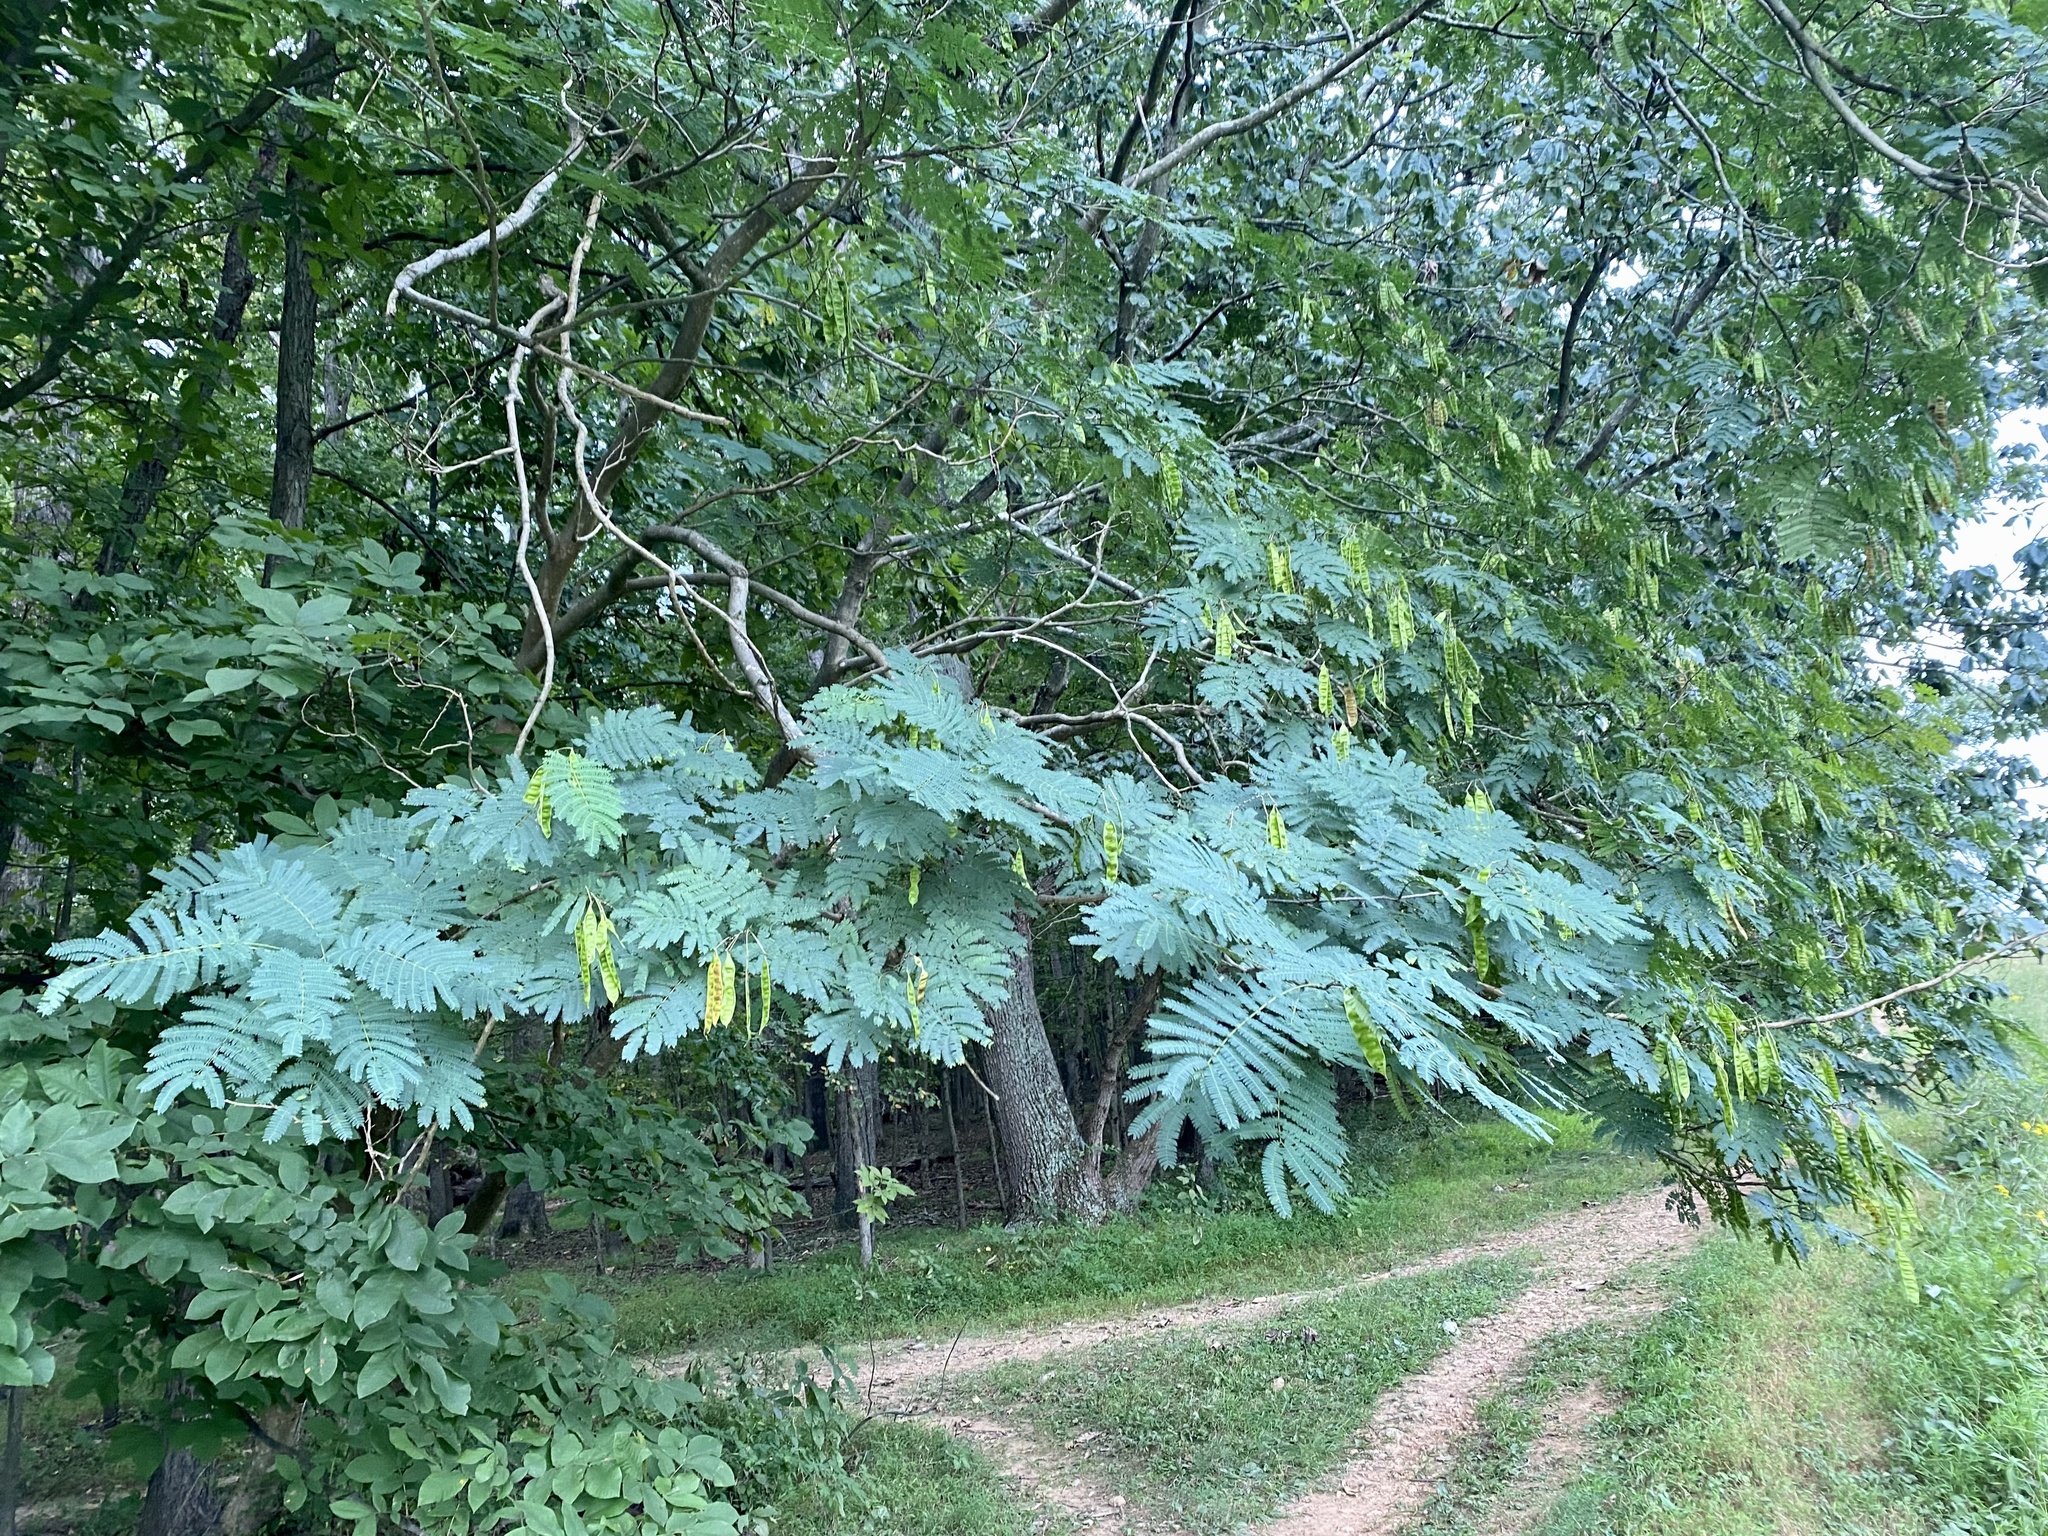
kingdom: Plantae
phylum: Tracheophyta
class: Magnoliopsida
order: Fabales
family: Fabaceae
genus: Albizia
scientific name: Albizia julibrissin
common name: Silktree
